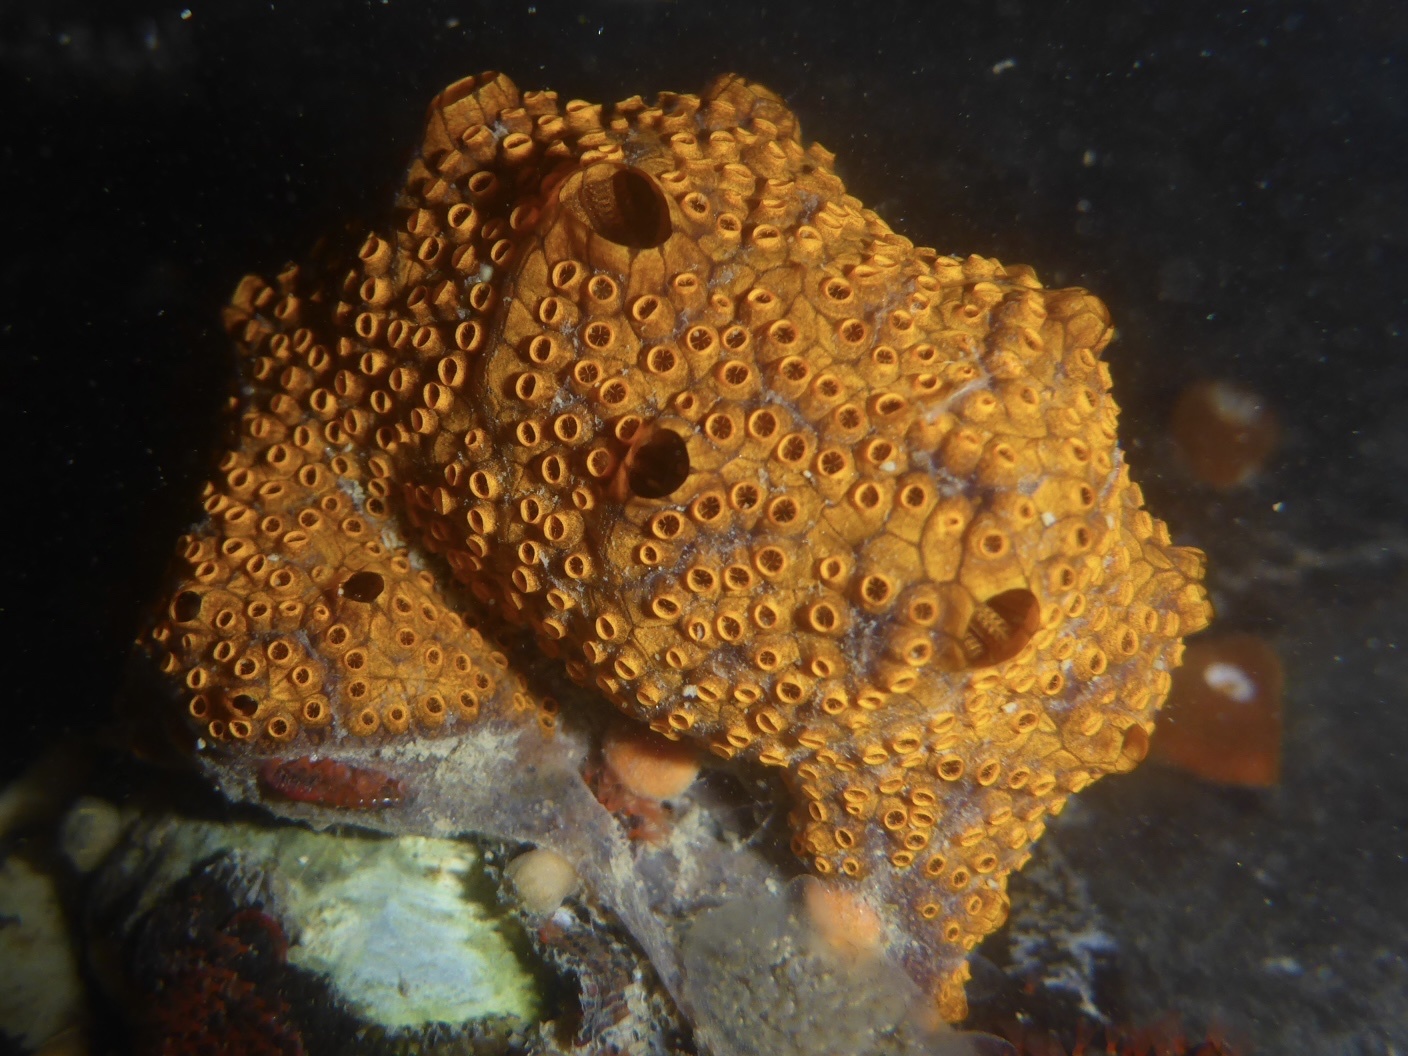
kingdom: Animalia
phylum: Chordata
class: Ascidiacea
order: Stolidobranchia
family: Styelidae
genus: Botrylloides
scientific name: Botrylloides violaceus
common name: Colonial sea squirt
